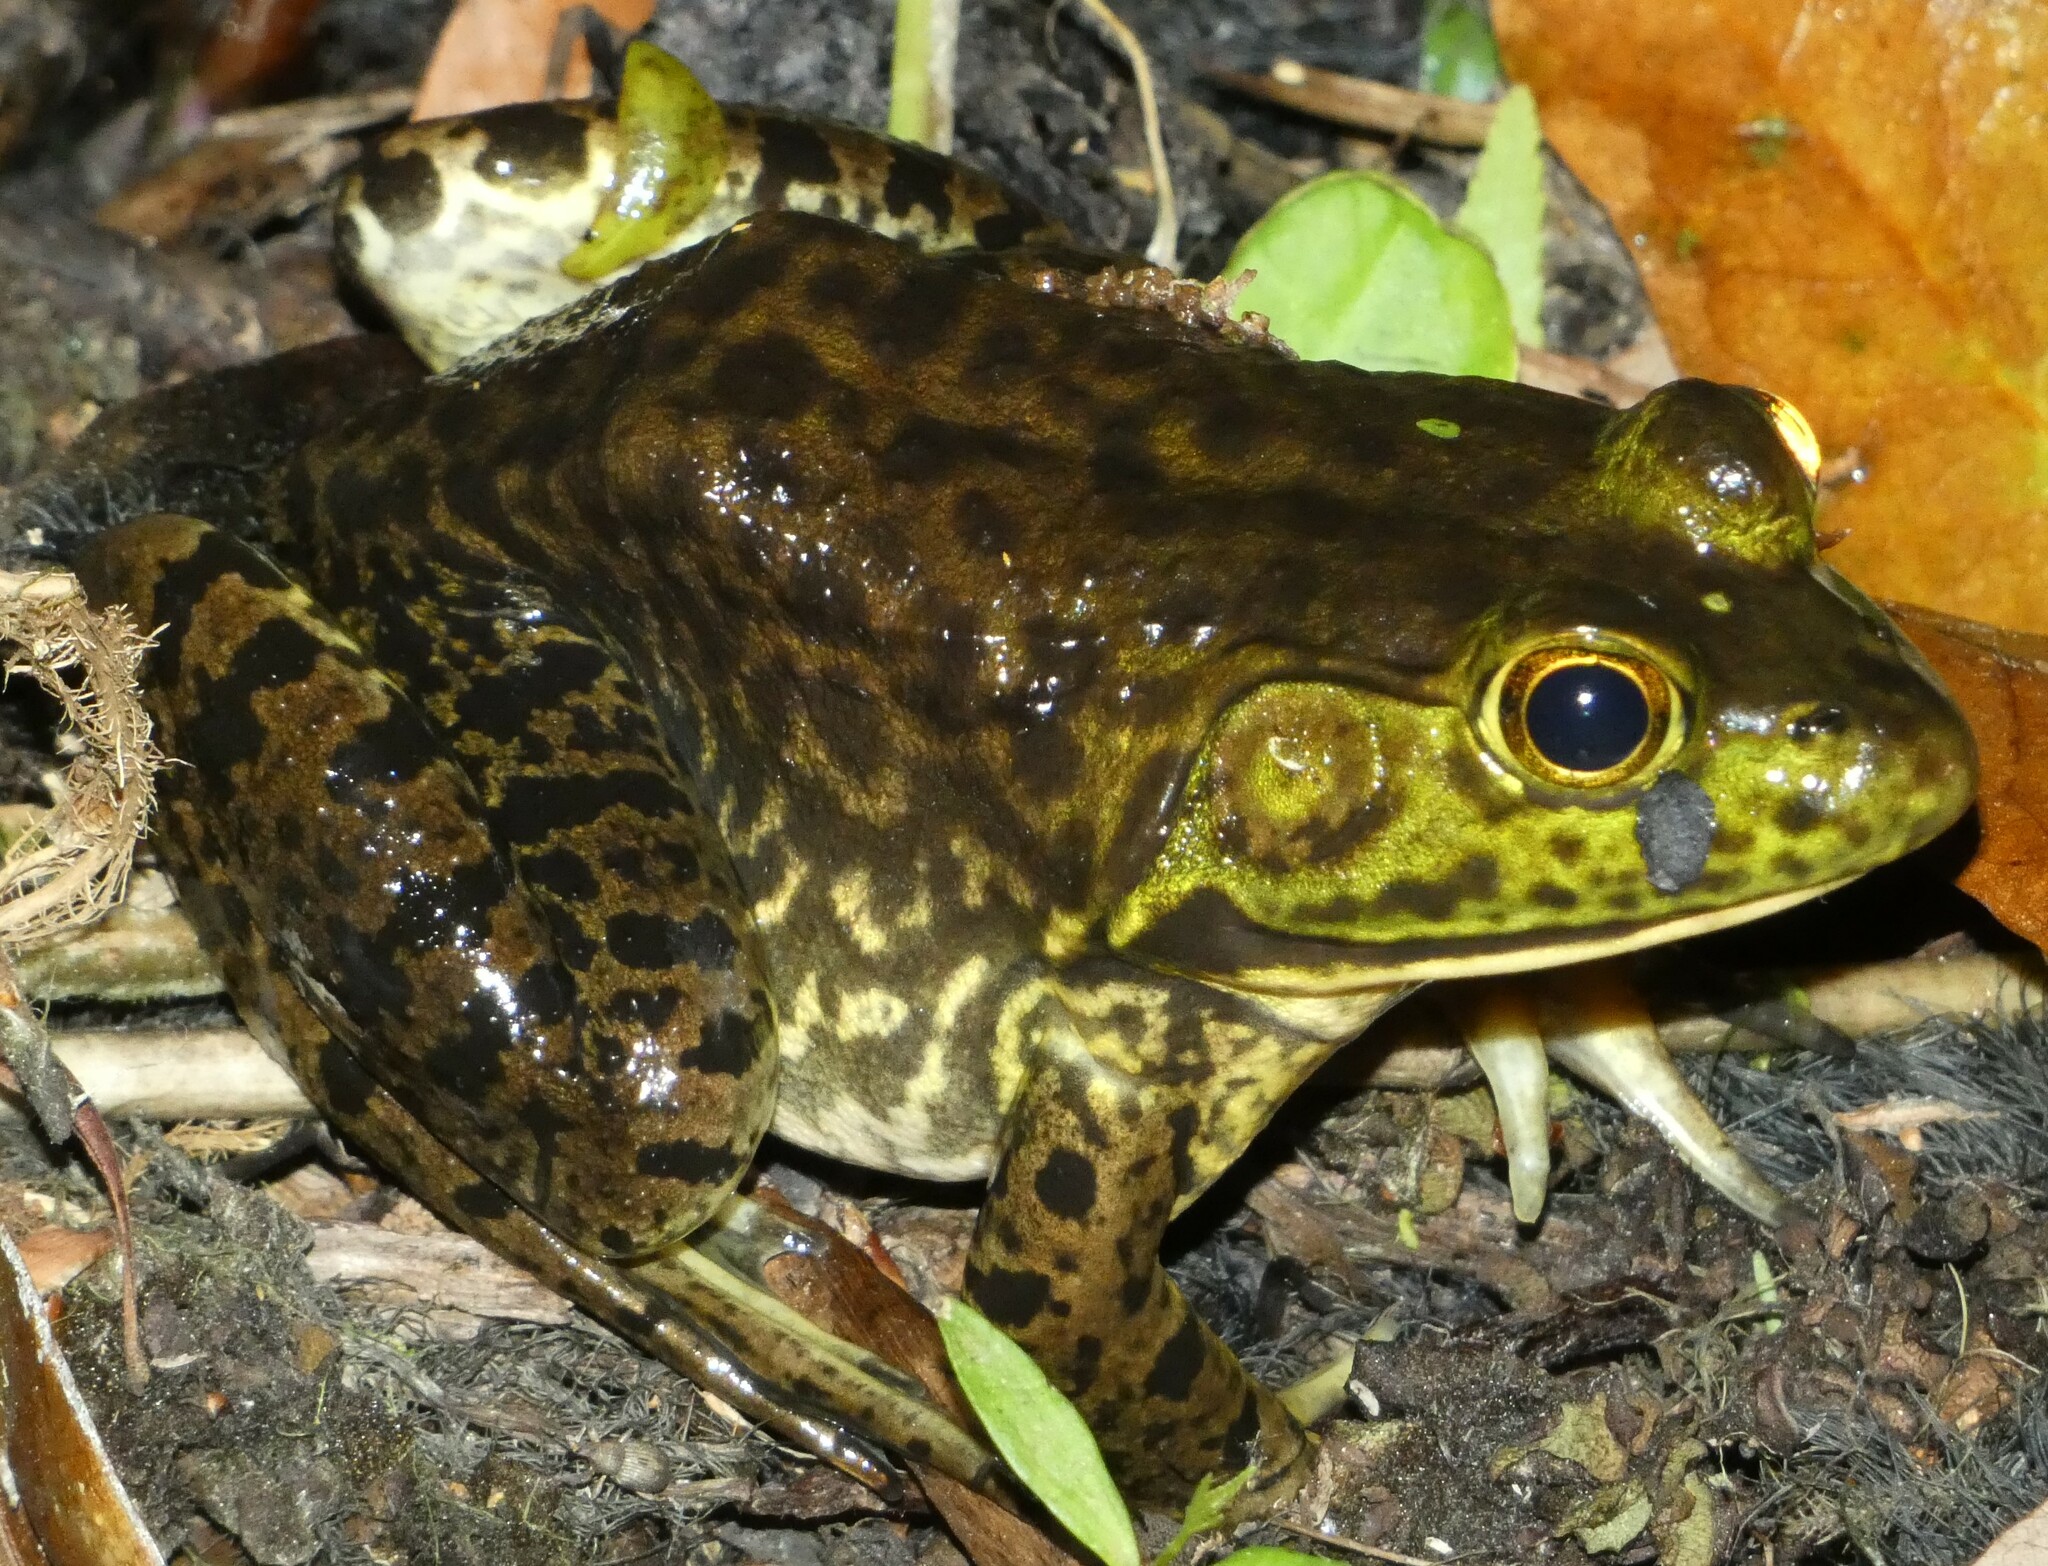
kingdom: Animalia
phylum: Chordata
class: Amphibia
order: Anura
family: Ranidae
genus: Lithobates
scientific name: Lithobates catesbeianus
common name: American bullfrog
